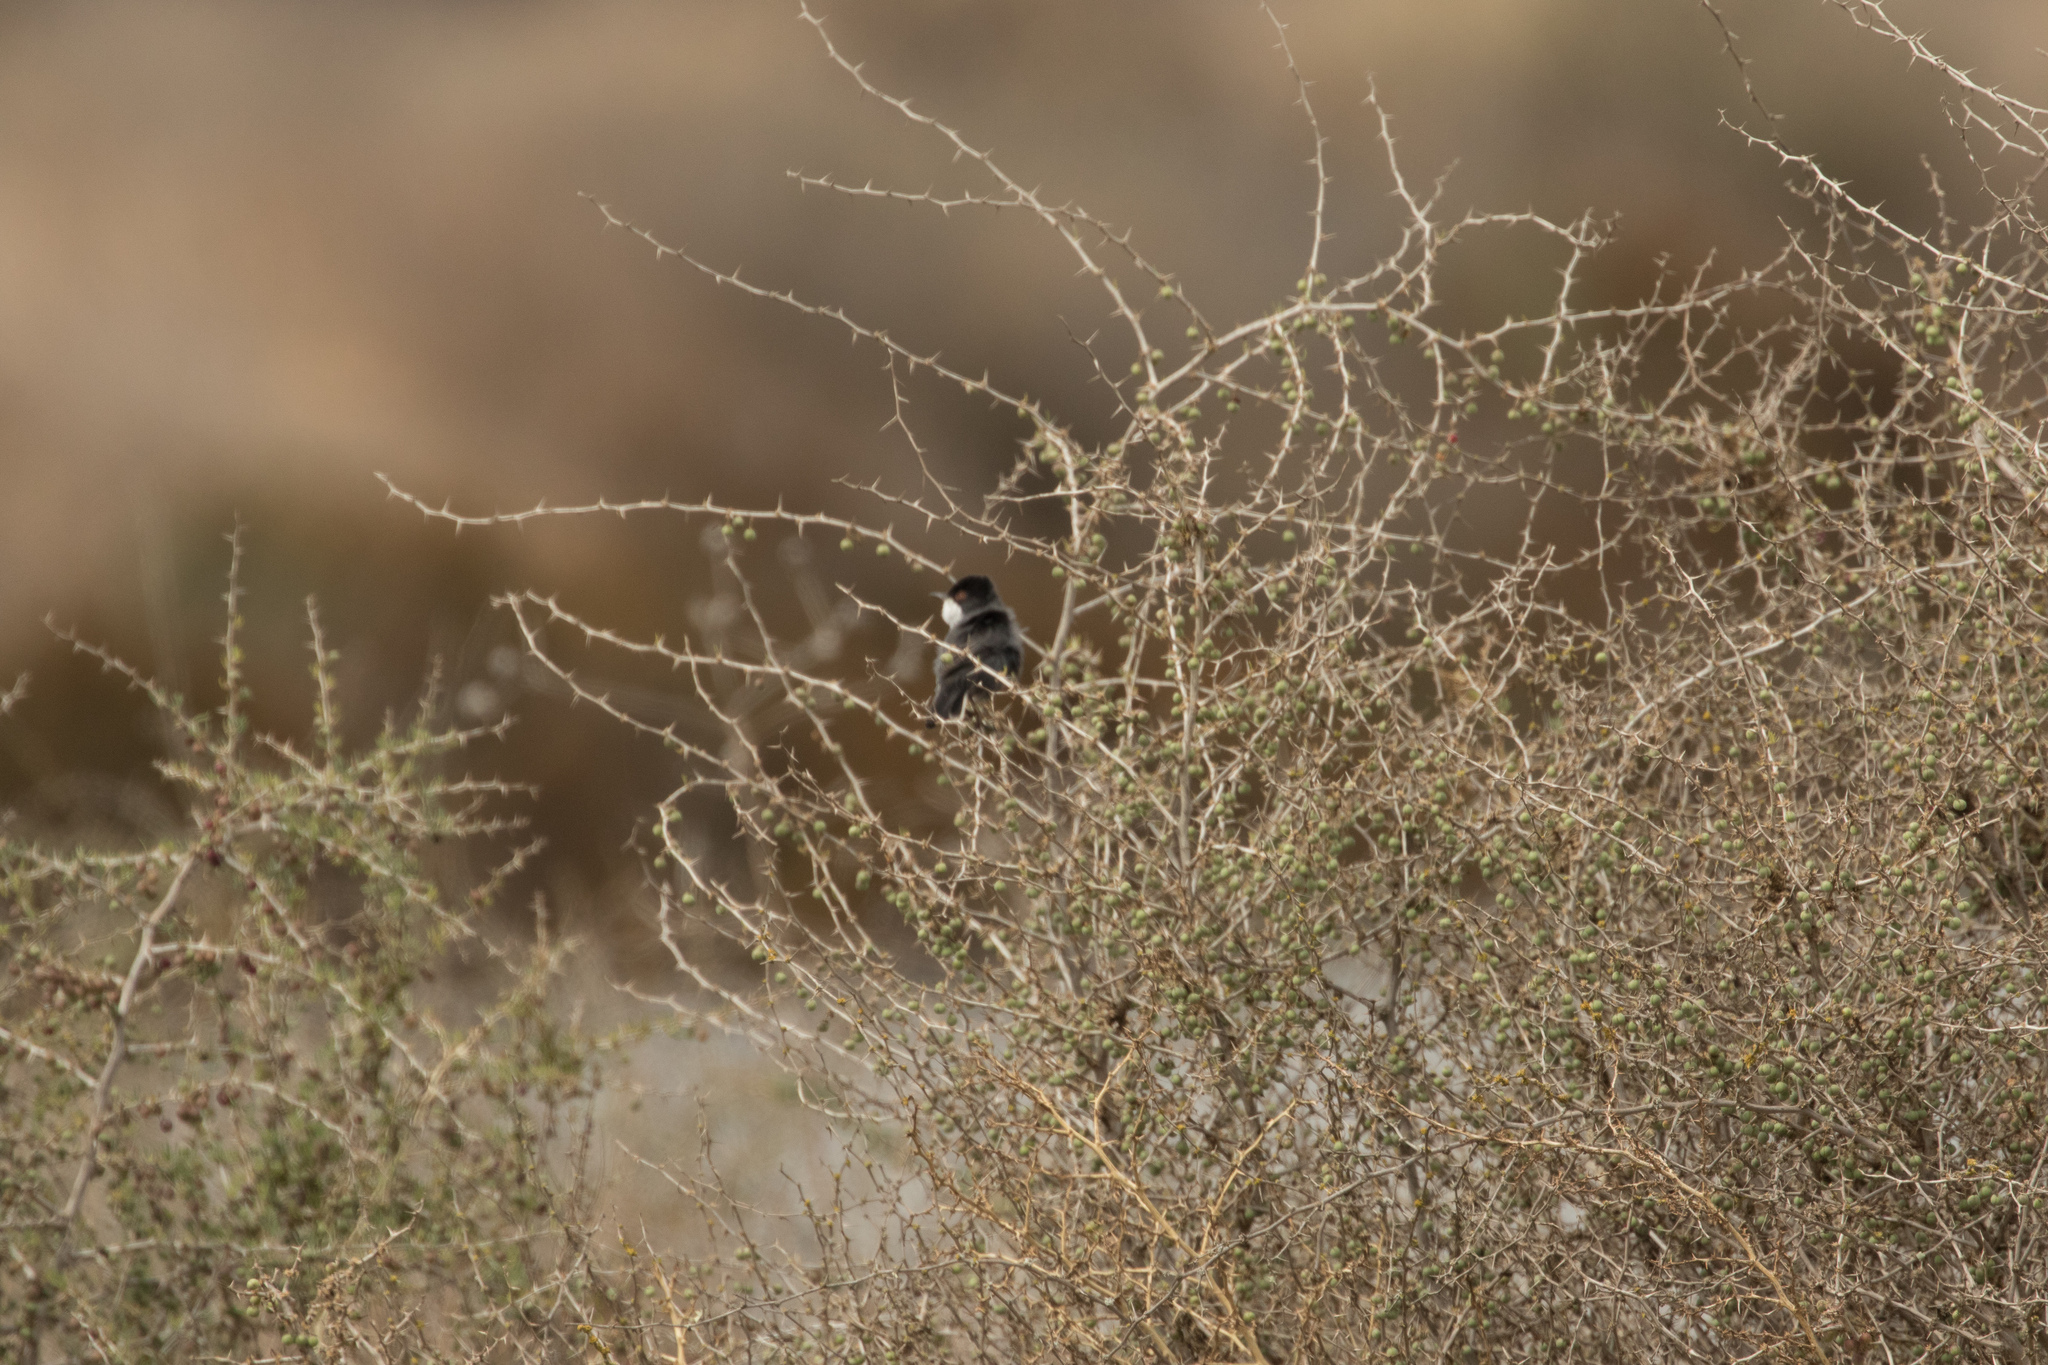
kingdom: Animalia
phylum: Chordata
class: Aves
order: Passeriformes
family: Sylviidae
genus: Curruca
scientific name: Curruca melanocephala
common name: Sardinian warbler
